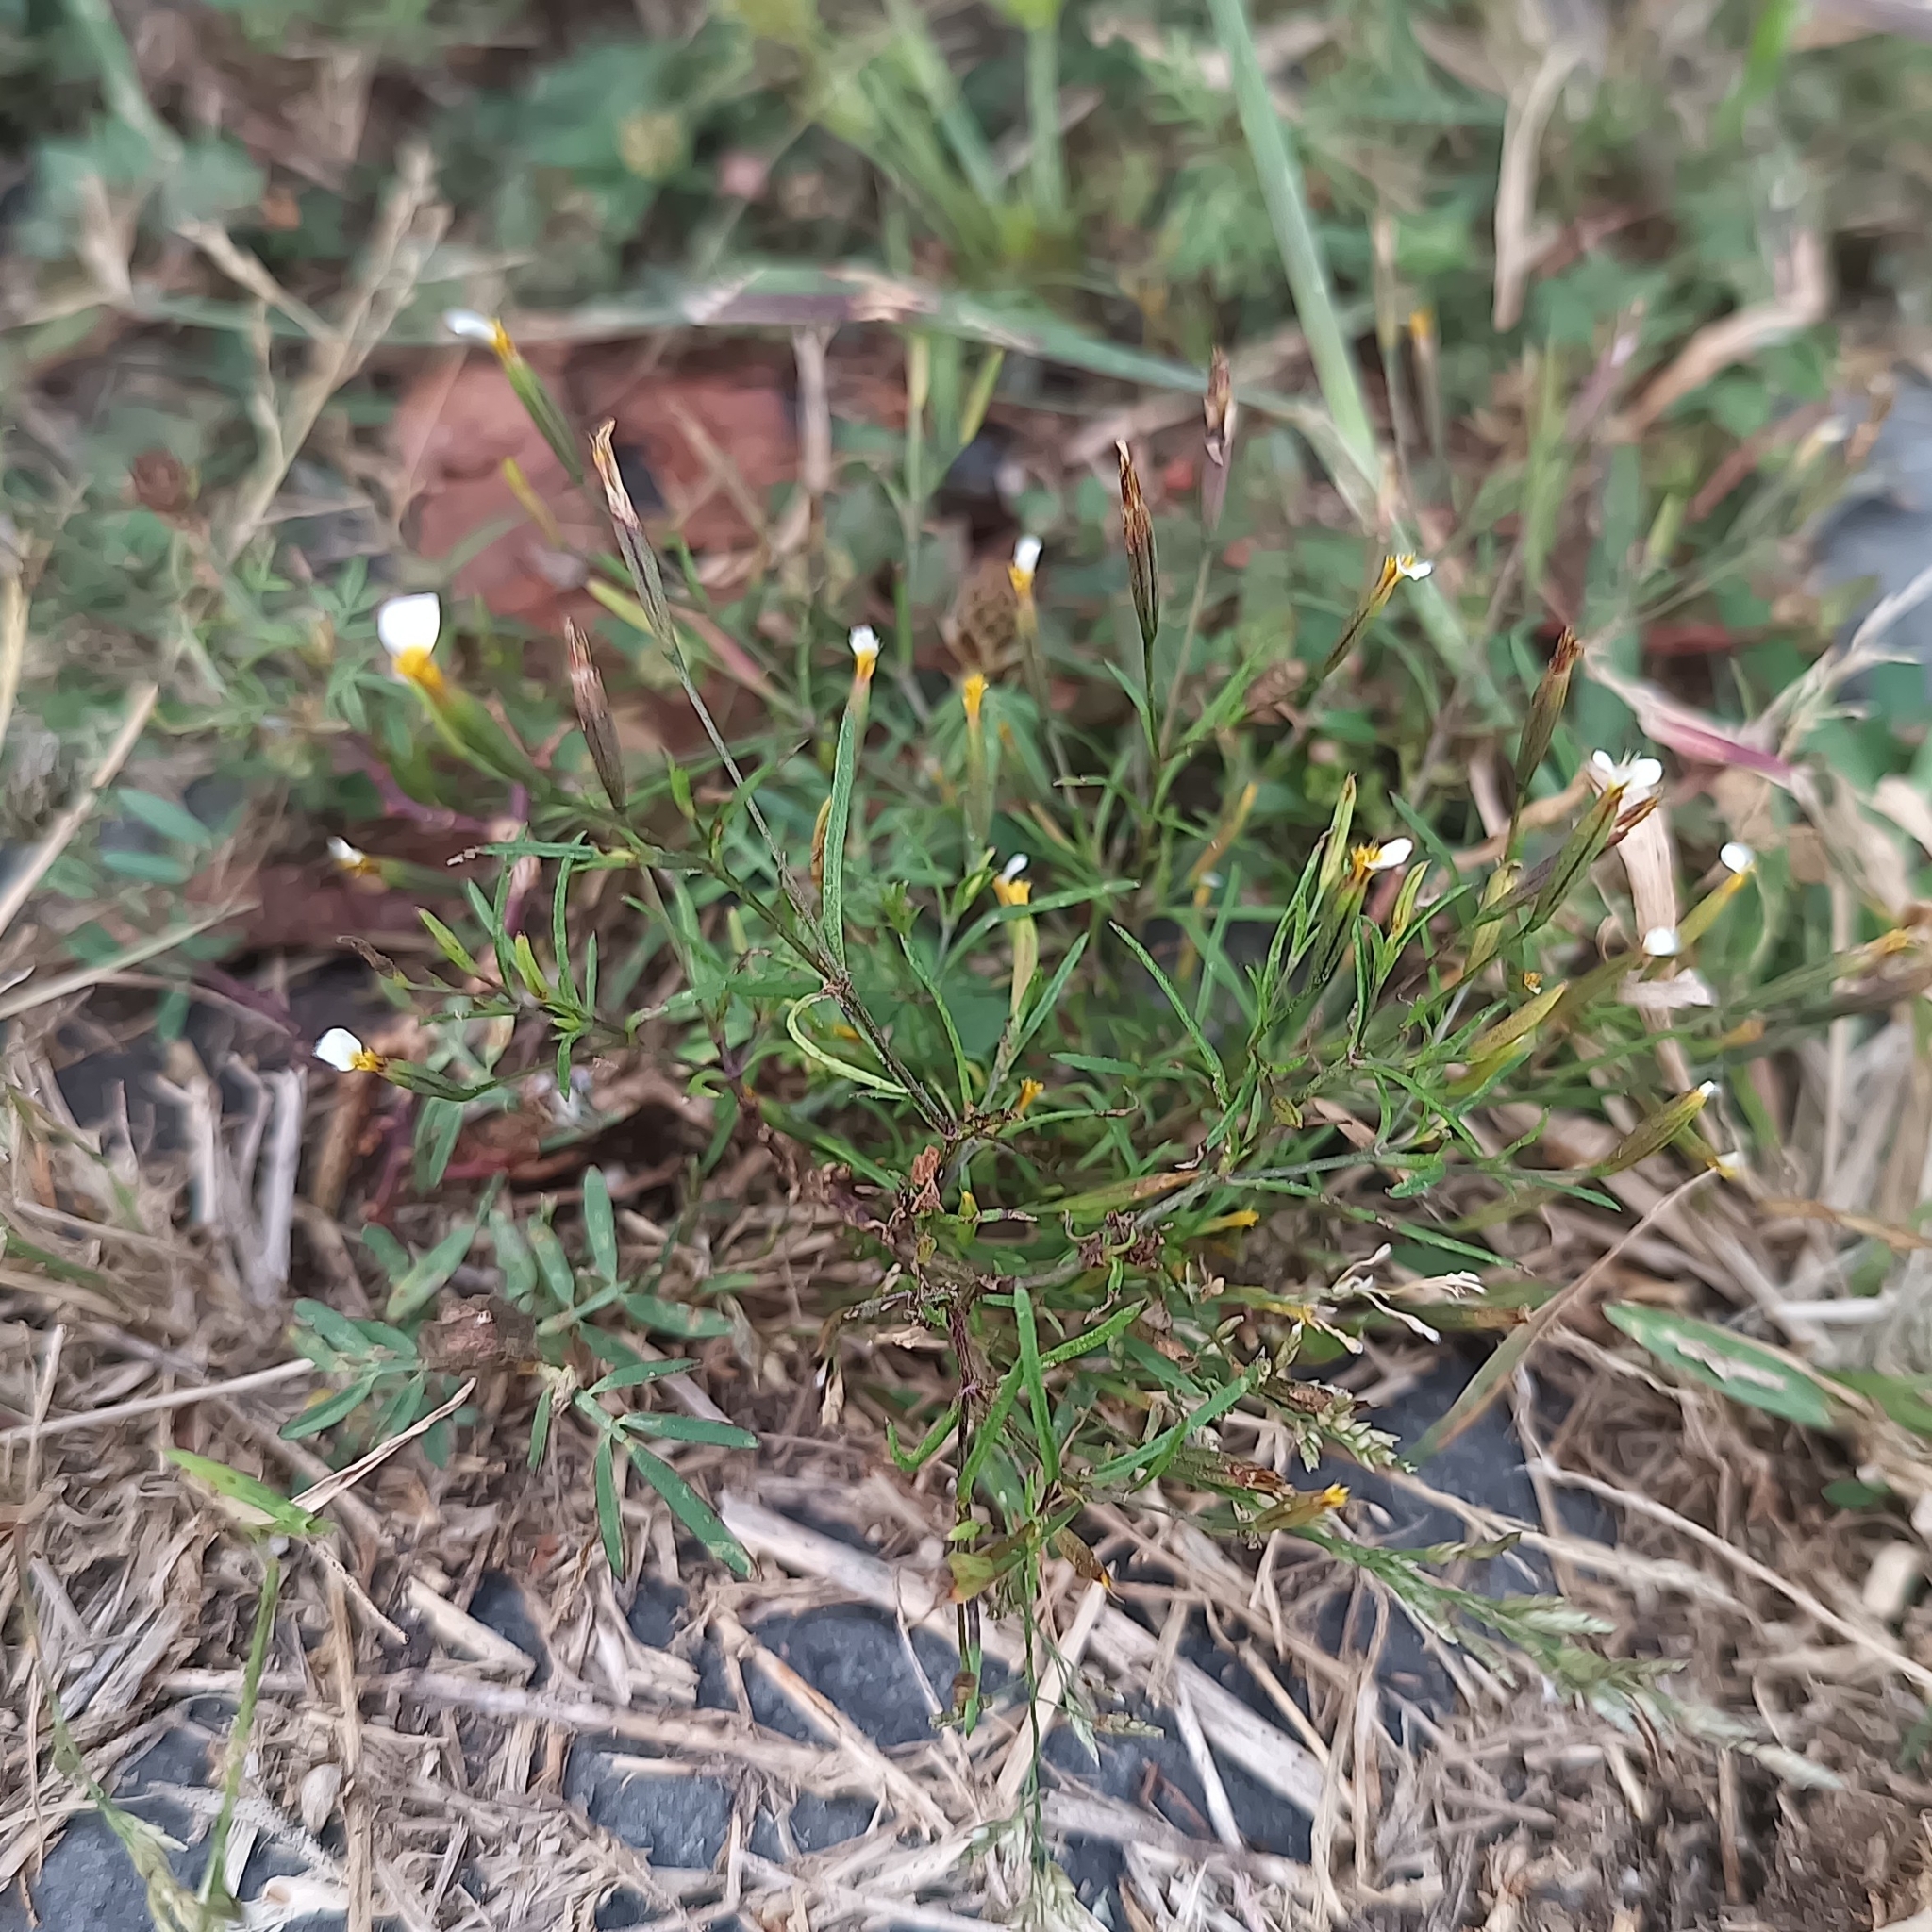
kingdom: Plantae
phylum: Tracheophyta
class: Magnoliopsida
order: Asterales
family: Asteraceae
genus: Tagetes
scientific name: Tagetes filifolia
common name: Lesser marigold
